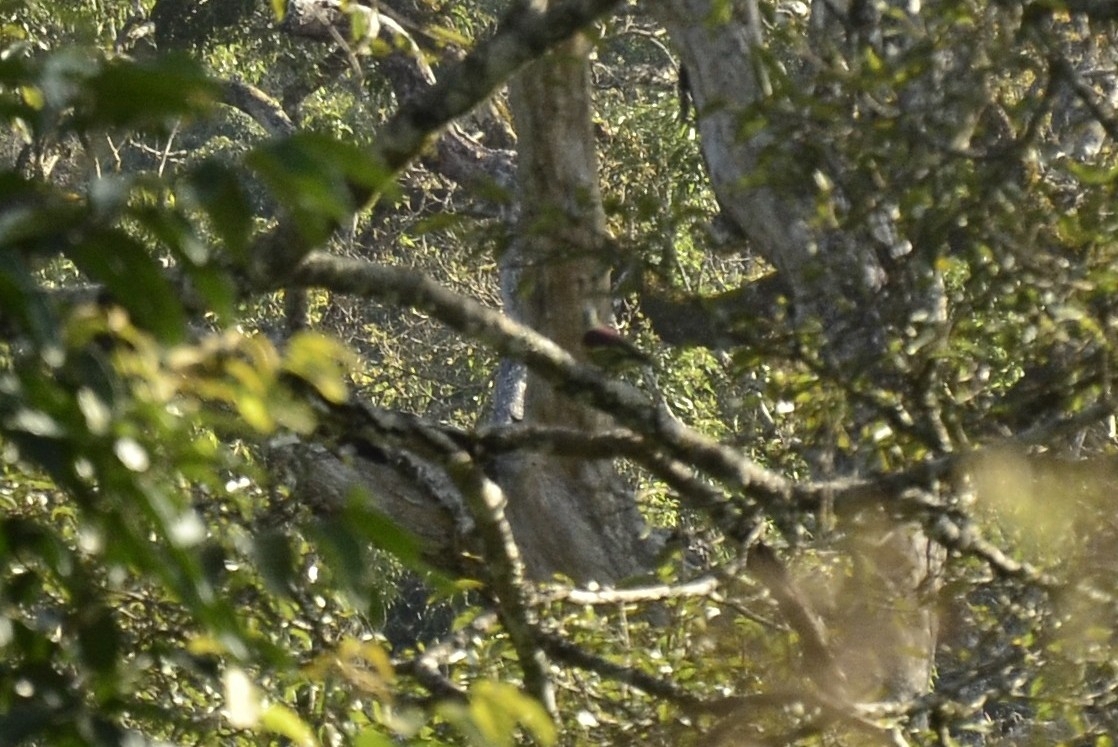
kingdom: Animalia
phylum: Chordata
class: Aves
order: Columbiformes
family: Columbidae
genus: Treron
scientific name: Treron affinis
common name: Grey-fronted green pigeon
